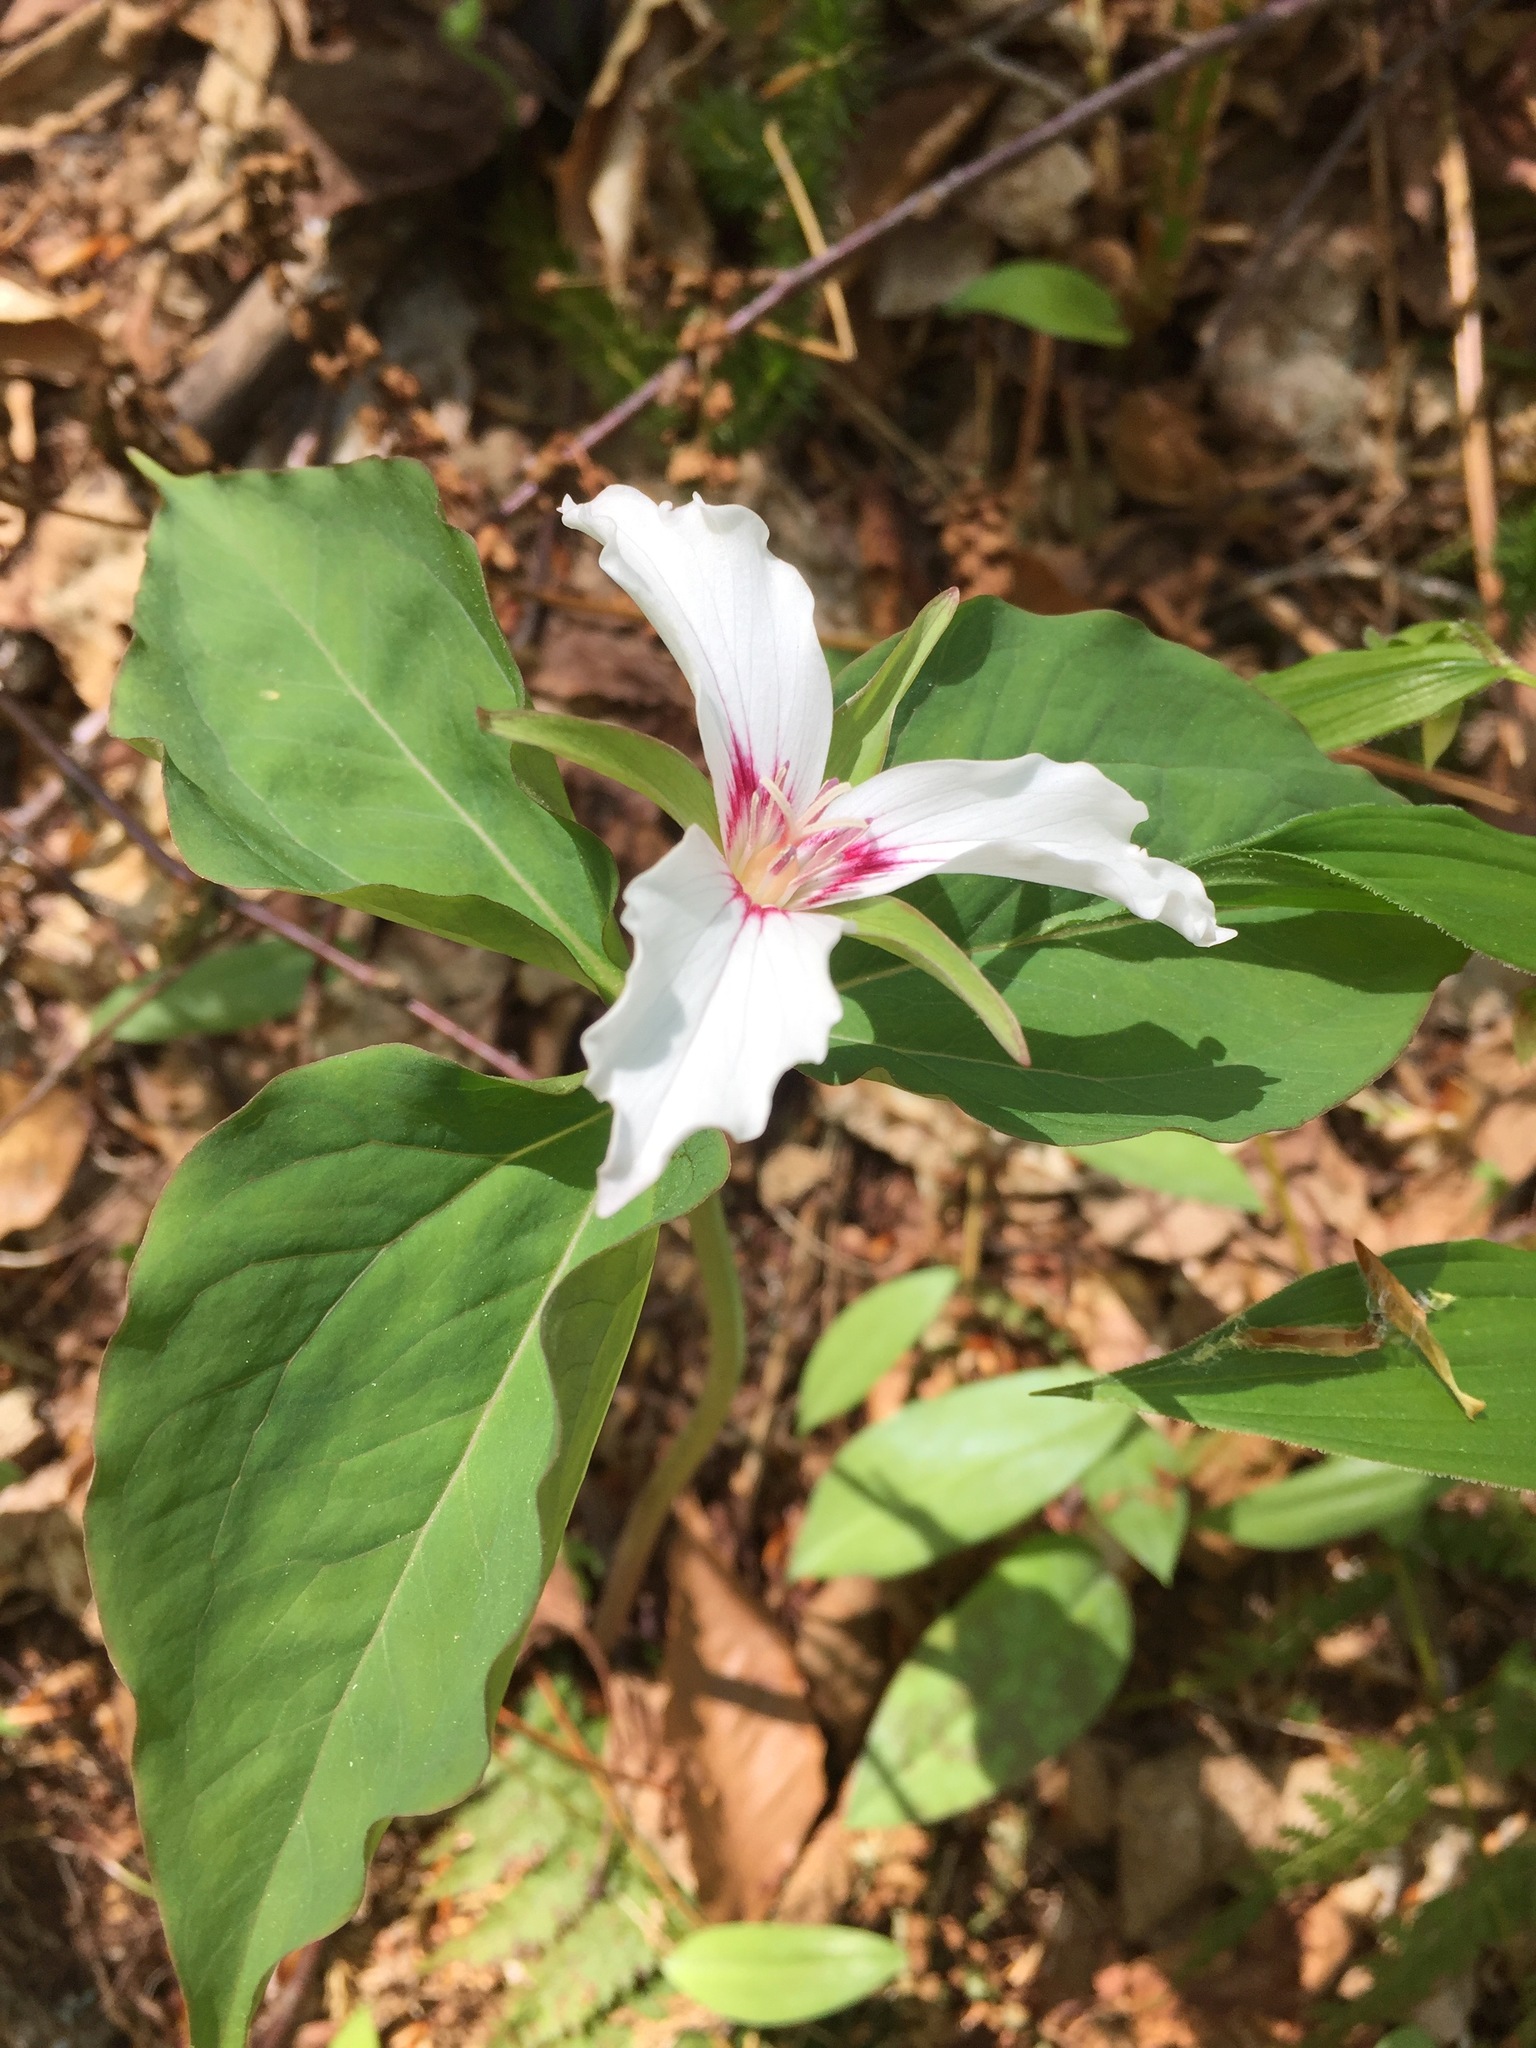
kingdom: Plantae
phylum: Tracheophyta
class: Liliopsida
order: Liliales
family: Melanthiaceae
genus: Trillium
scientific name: Trillium undulatum
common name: Paint trillium
